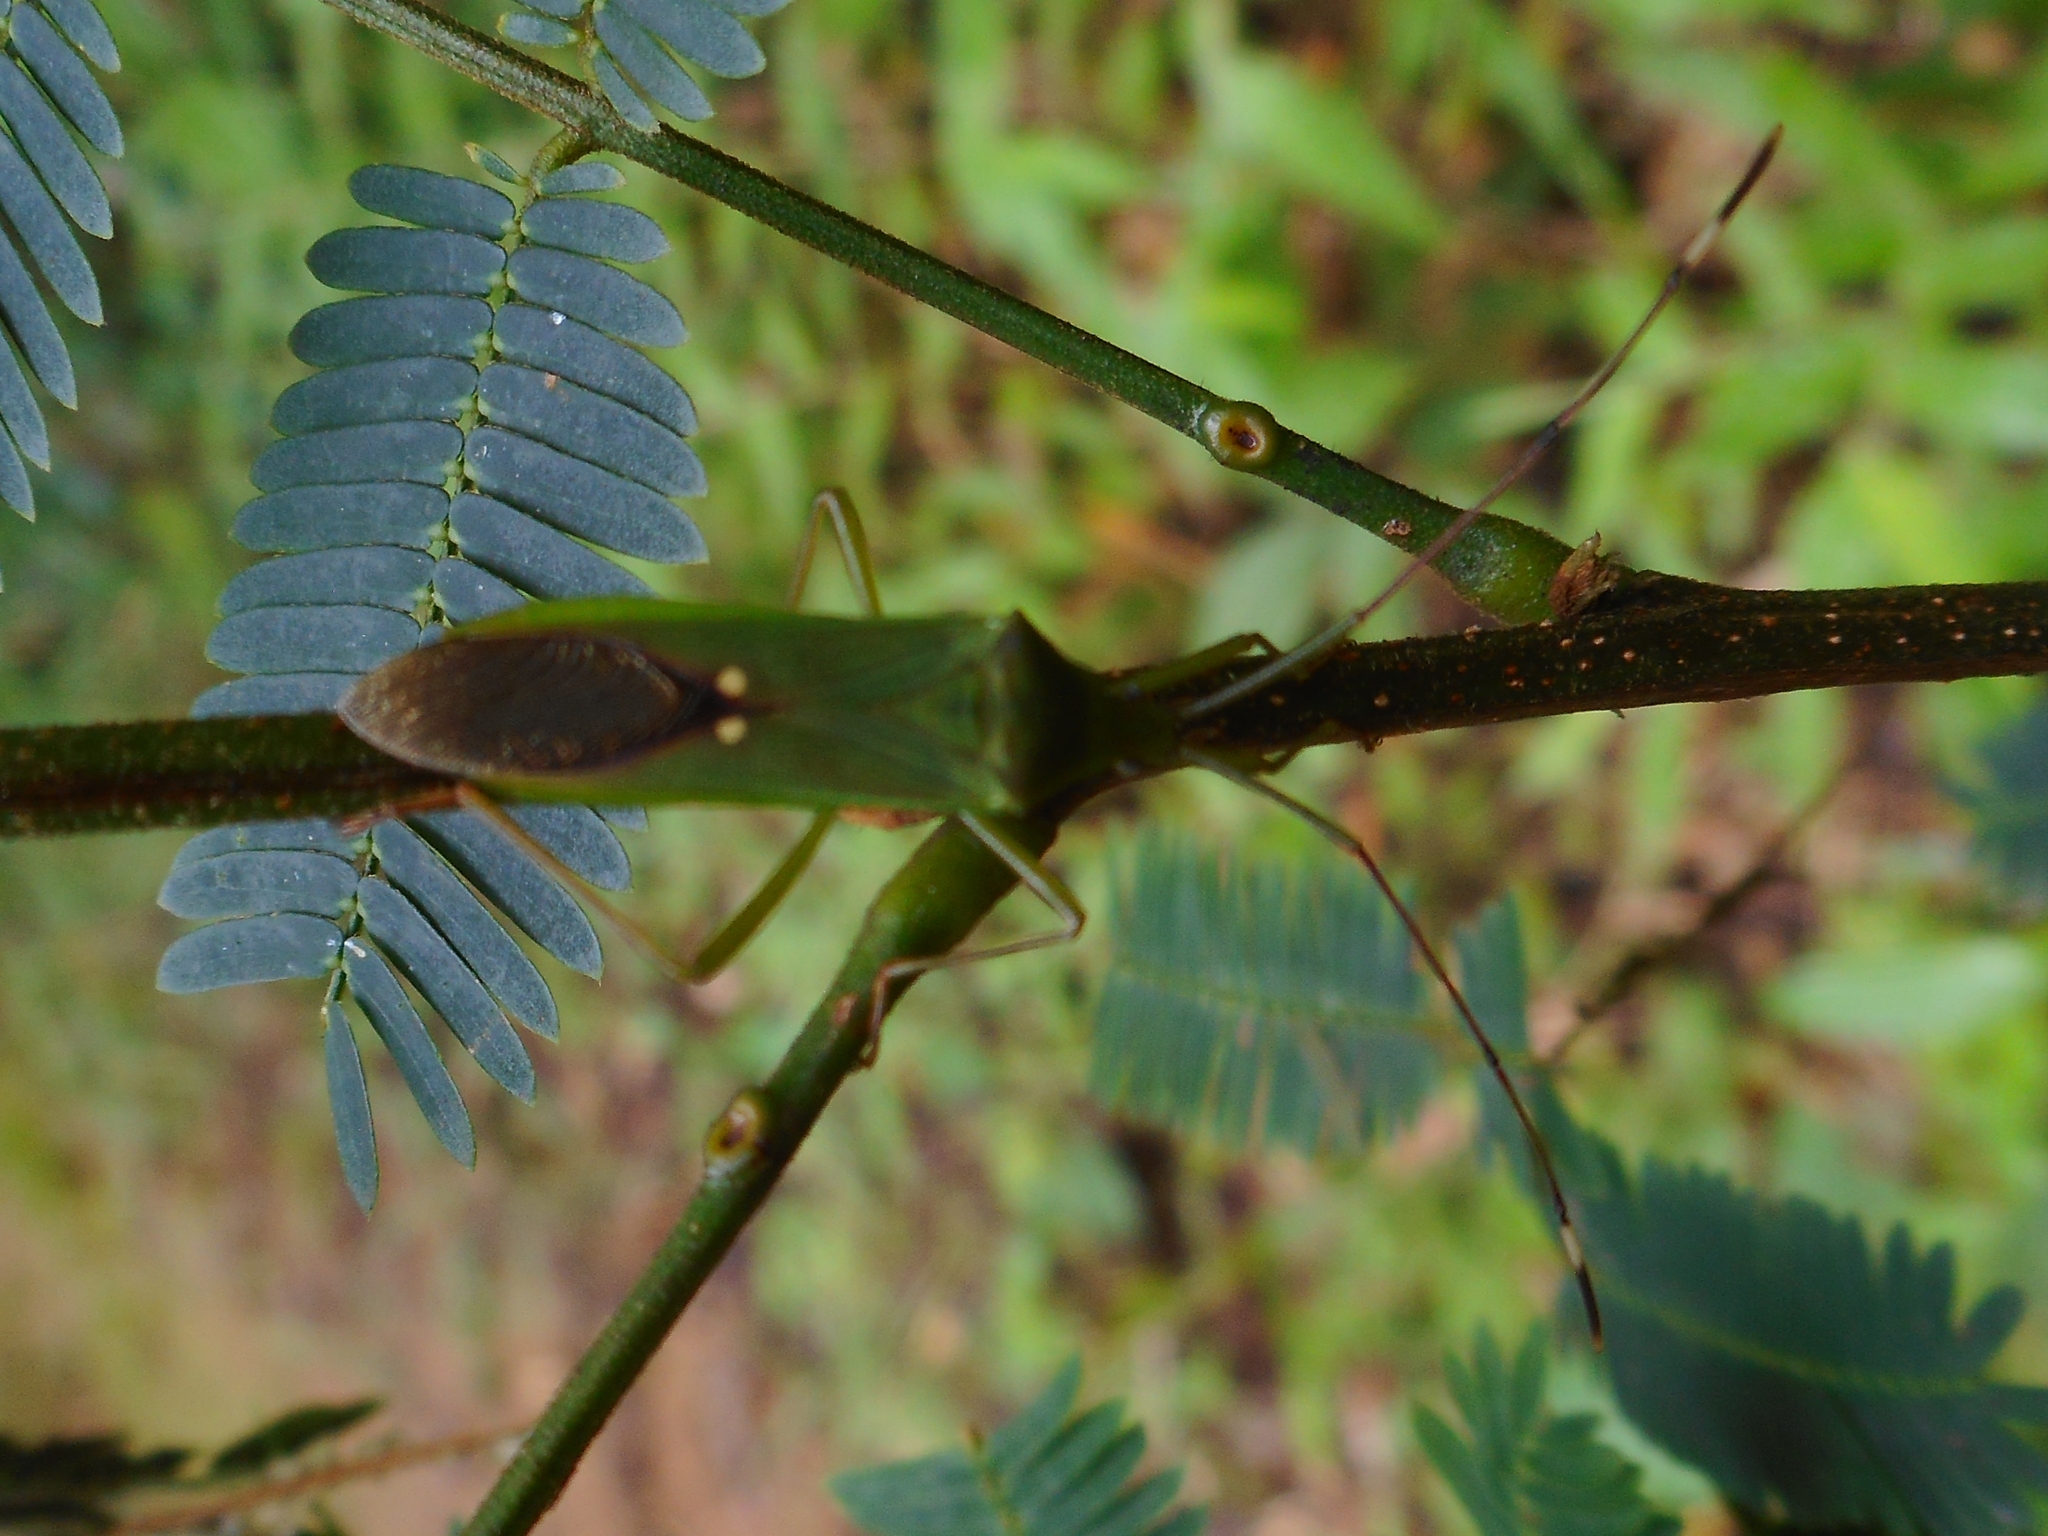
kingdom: Animalia
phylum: Arthropoda
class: Insecta
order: Hemiptera
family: Coreidae
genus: Homoeocerus
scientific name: Homoeocerus graminis
